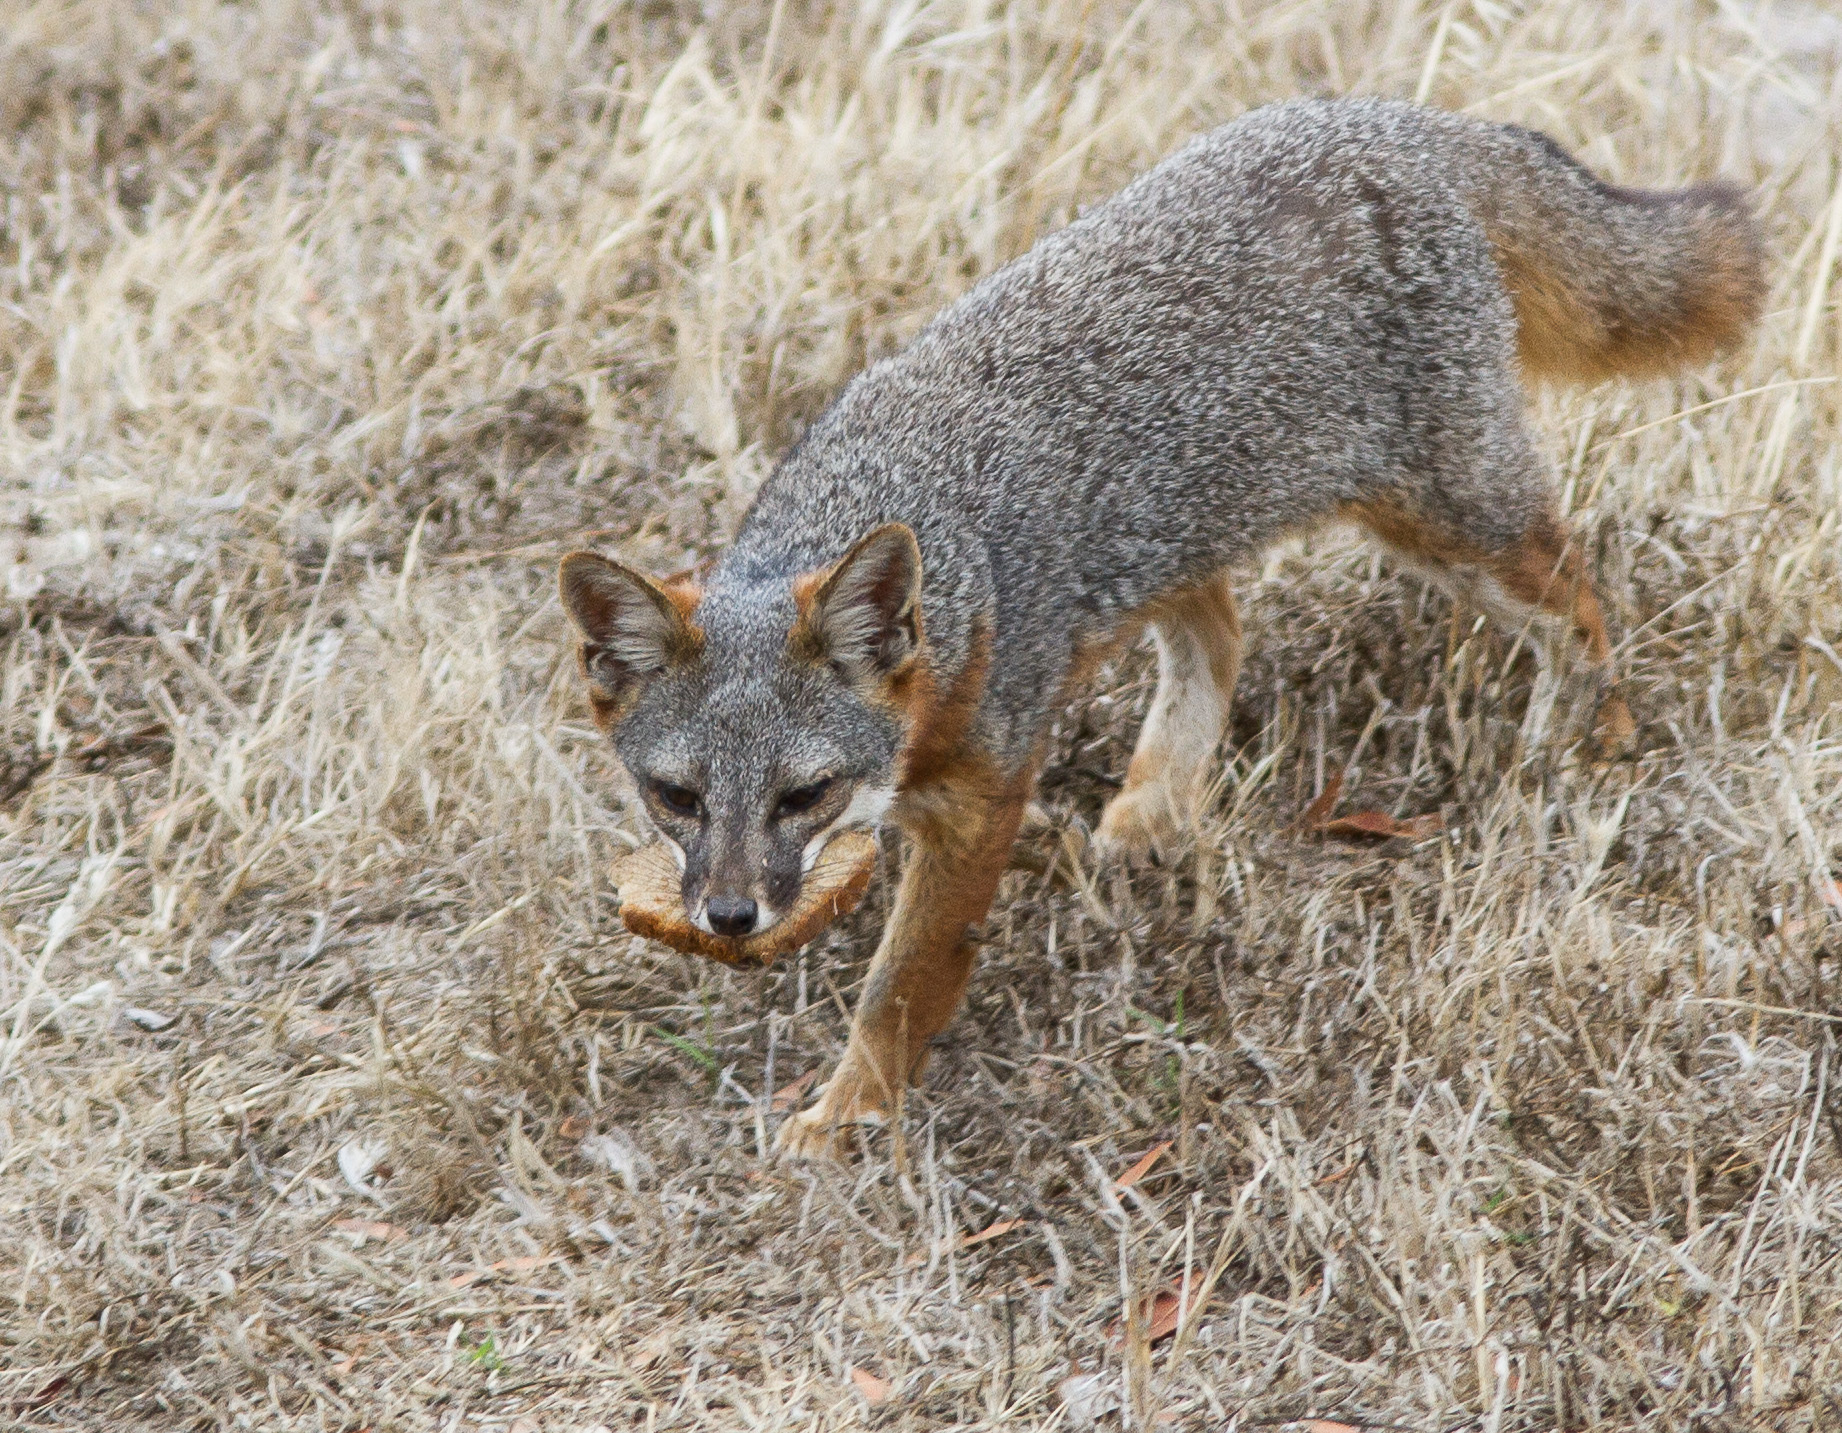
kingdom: Animalia
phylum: Chordata
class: Mammalia
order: Carnivora
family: Canidae
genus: Urocyon
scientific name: Urocyon littoralis
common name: Island gray fox
